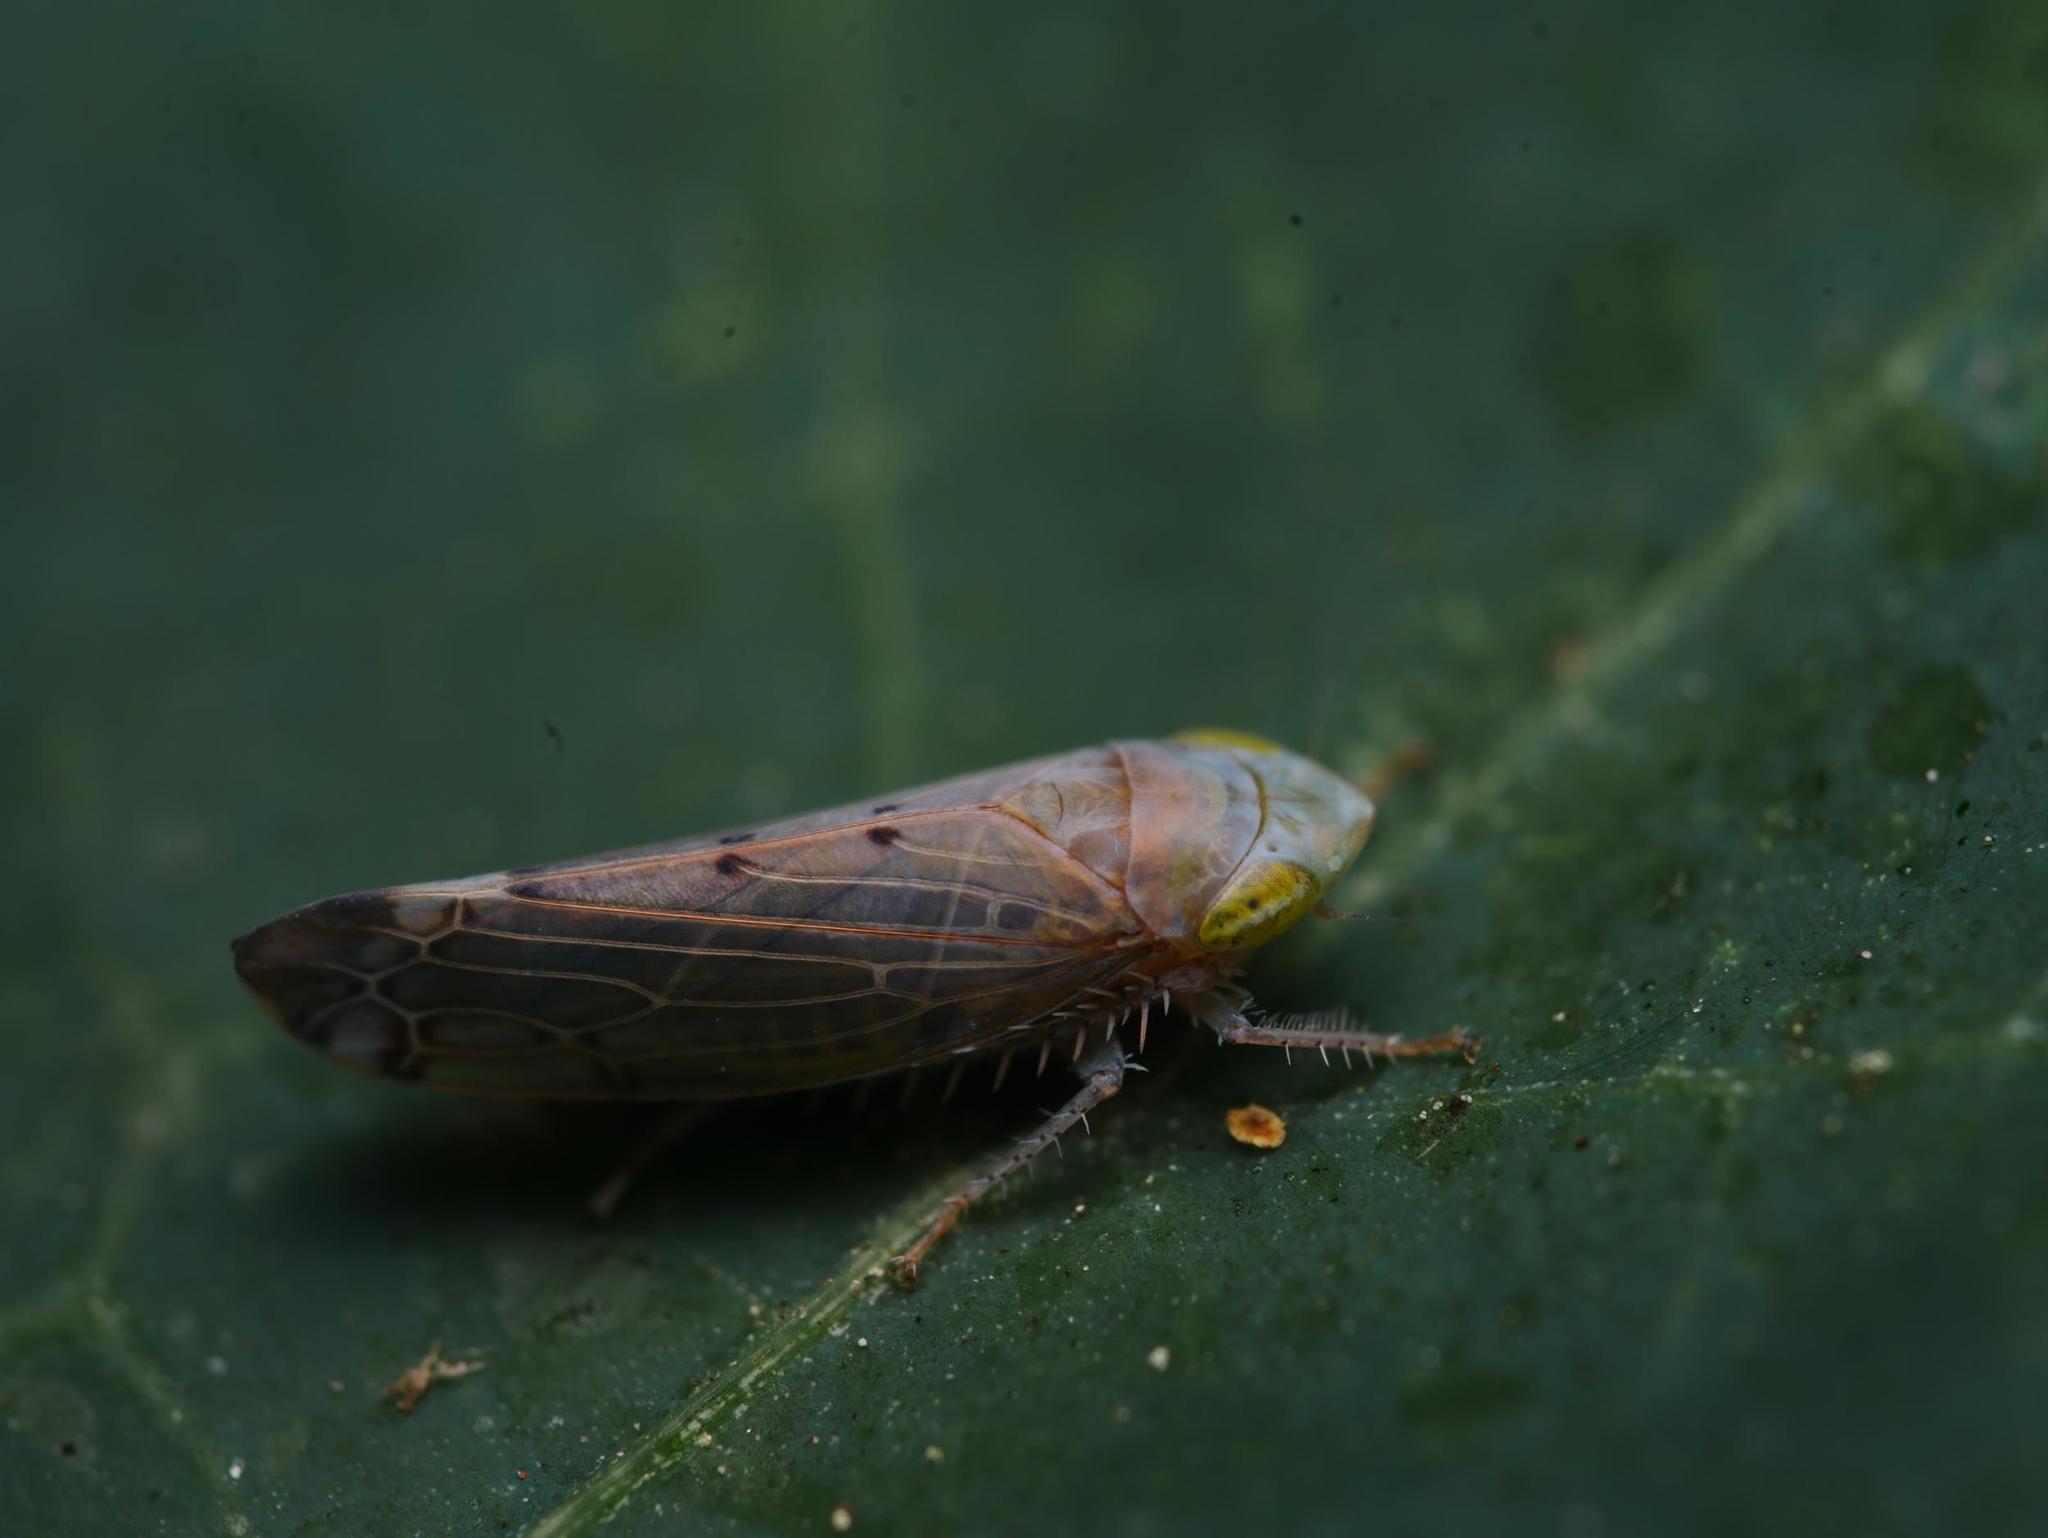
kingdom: Animalia
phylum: Arthropoda
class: Insecta
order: Hemiptera
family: Cicadellidae
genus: Synophropsis
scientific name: Synophropsis lauri
